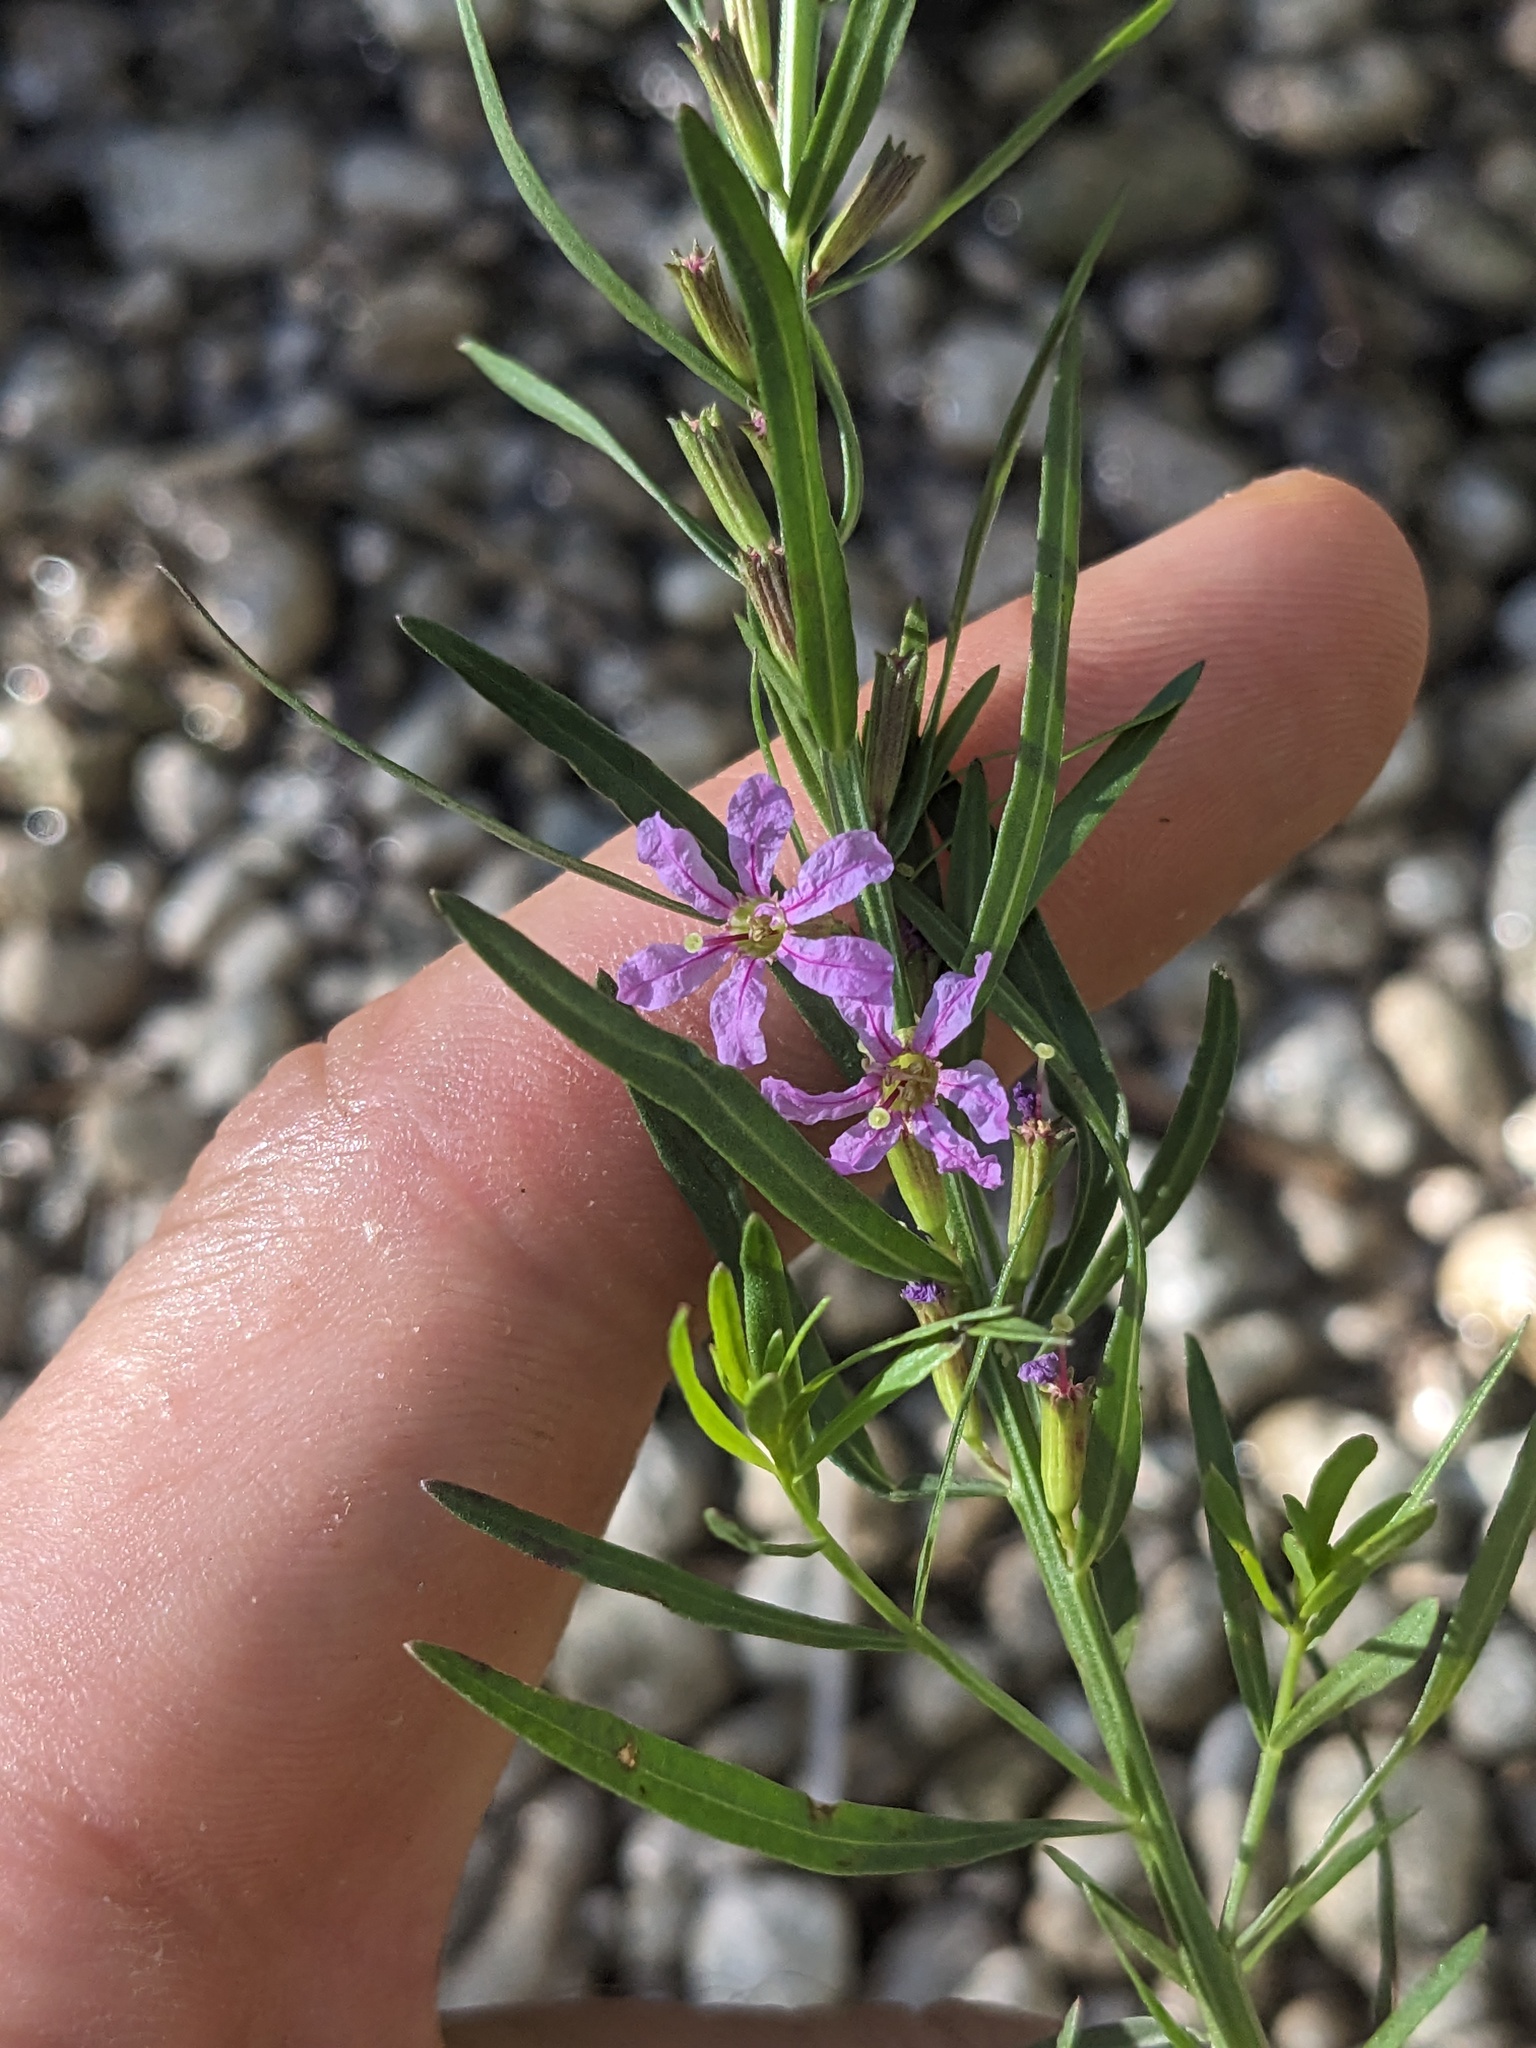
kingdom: Plantae
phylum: Tracheophyta
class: Magnoliopsida
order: Myrtales
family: Lythraceae
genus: Lythrum
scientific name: Lythrum californicum
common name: California loosestrife
